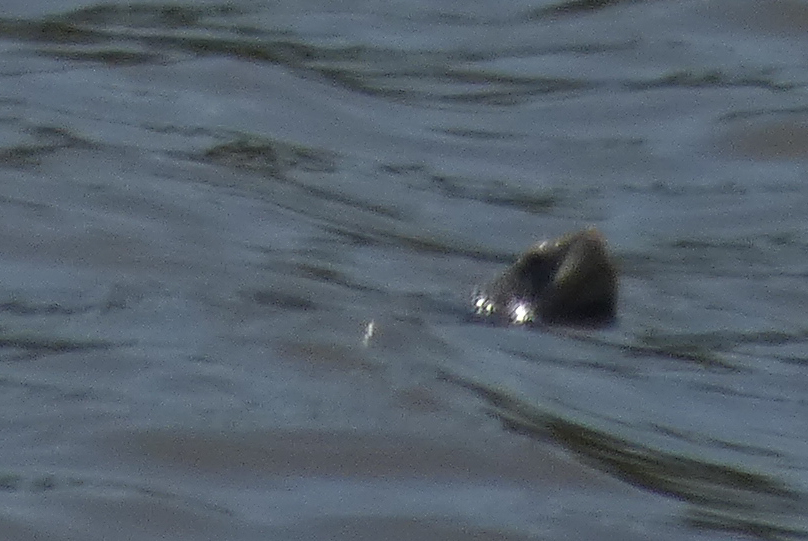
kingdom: Animalia
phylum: Chordata
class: Testudines
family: Emydidae
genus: Malaclemys
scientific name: Malaclemys terrapin
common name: Diamondback terrapin
